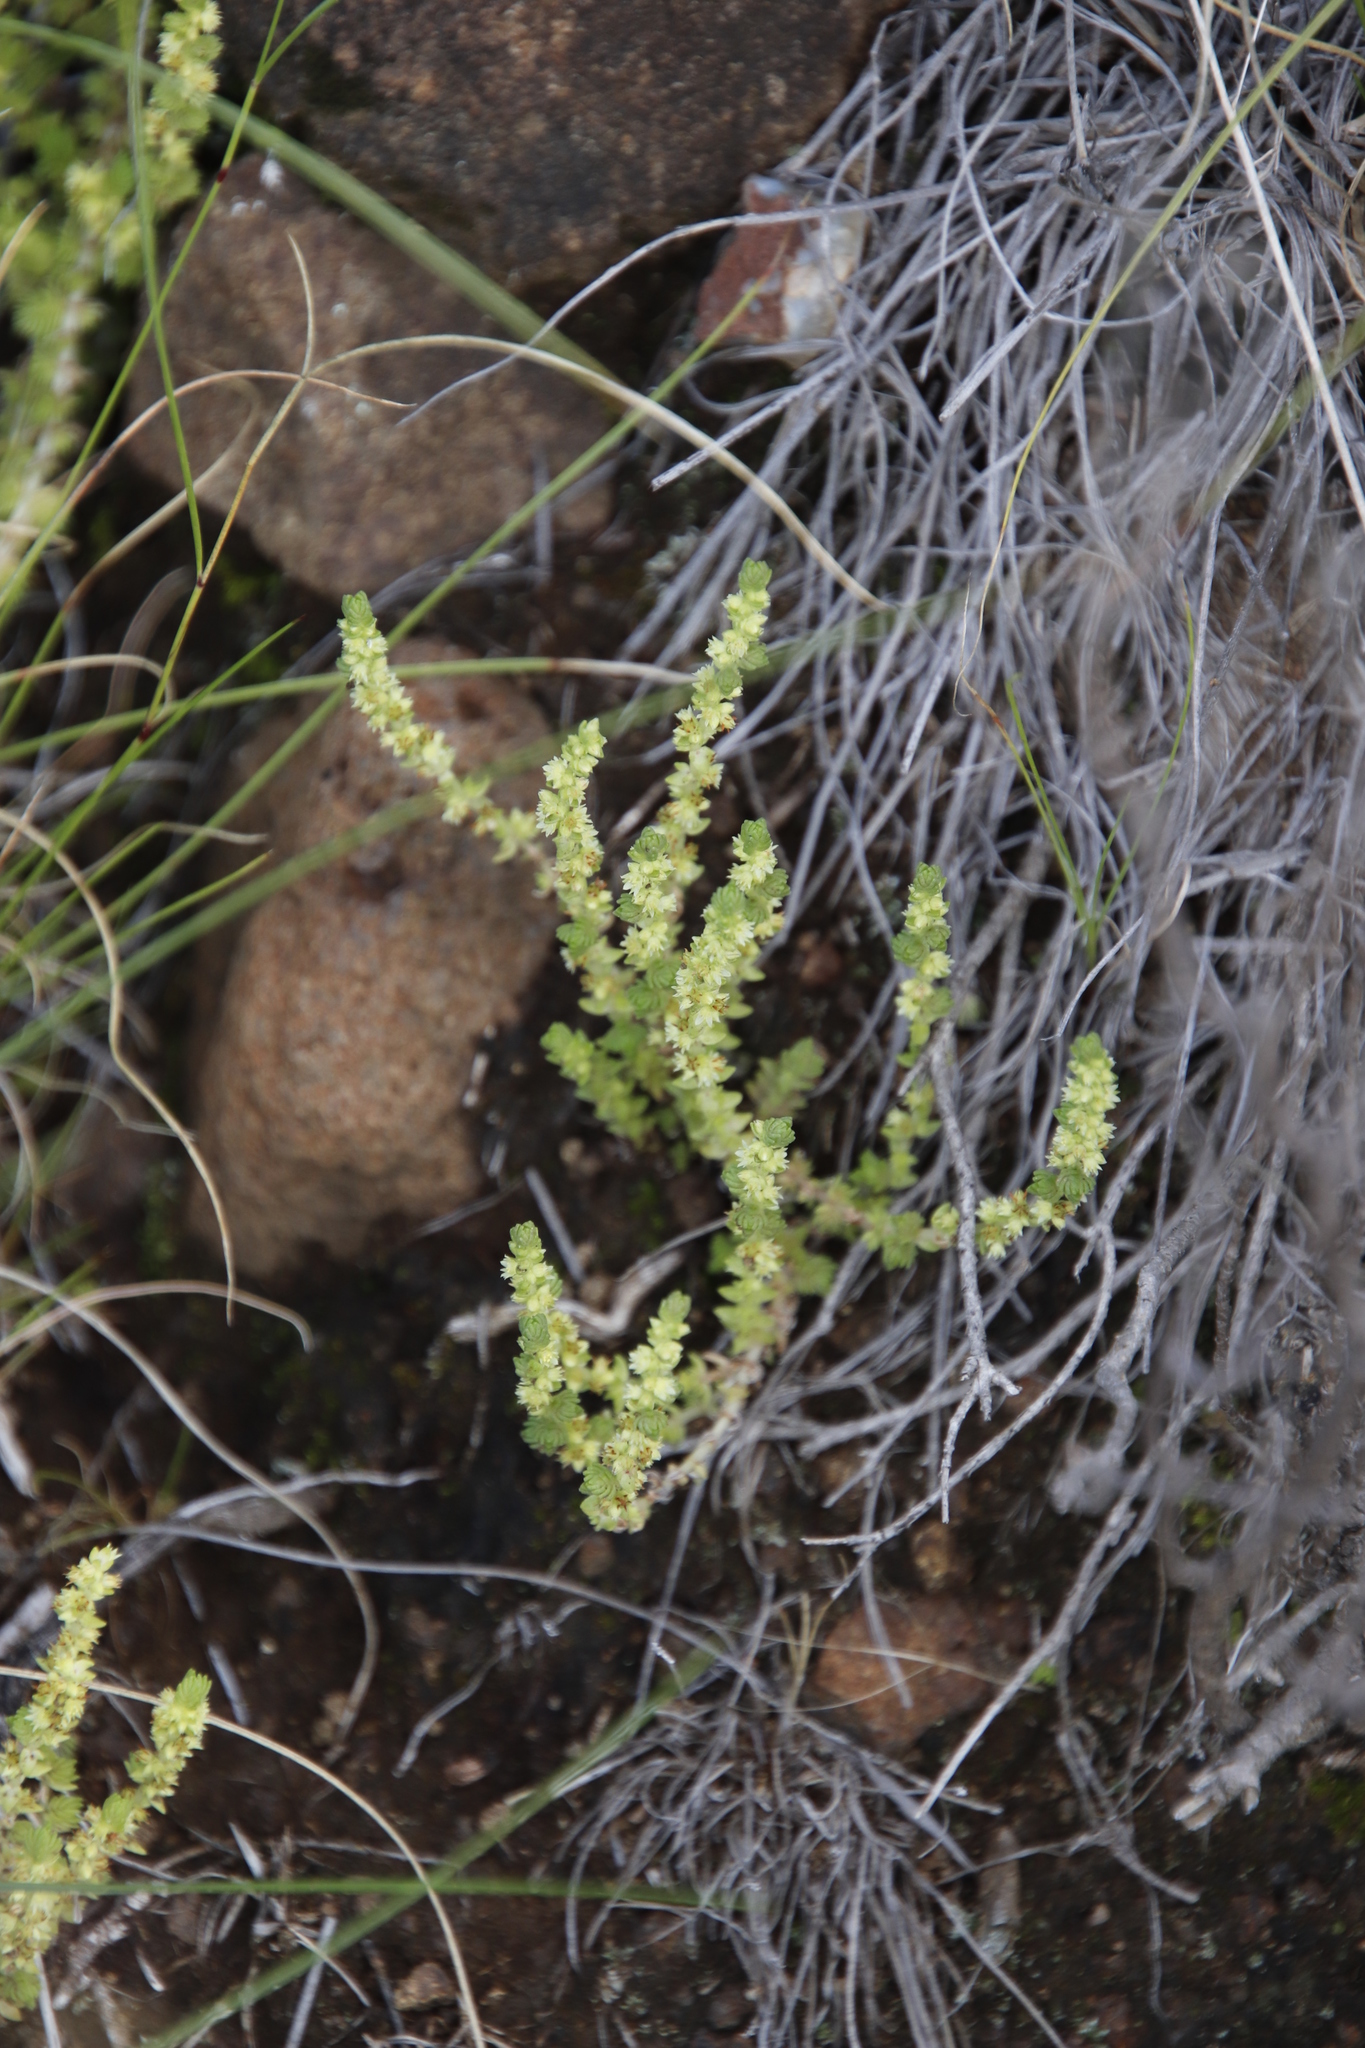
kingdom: Plantae
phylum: Tracheophyta
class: Magnoliopsida
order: Saxifragales
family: Crassulaceae
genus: Crassula
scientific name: Crassula lanceolata
